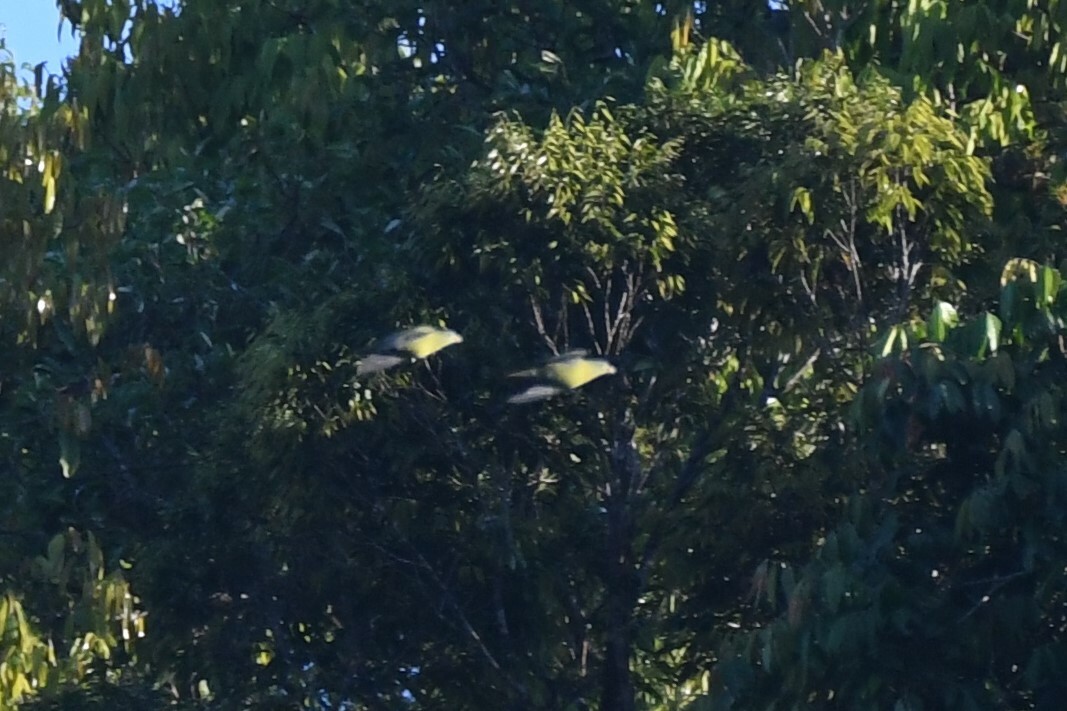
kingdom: Animalia
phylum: Chordata
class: Aves
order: Columbiformes
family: Columbidae
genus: Treron
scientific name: Treron curvirostra
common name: Thick-billed green pigeon
